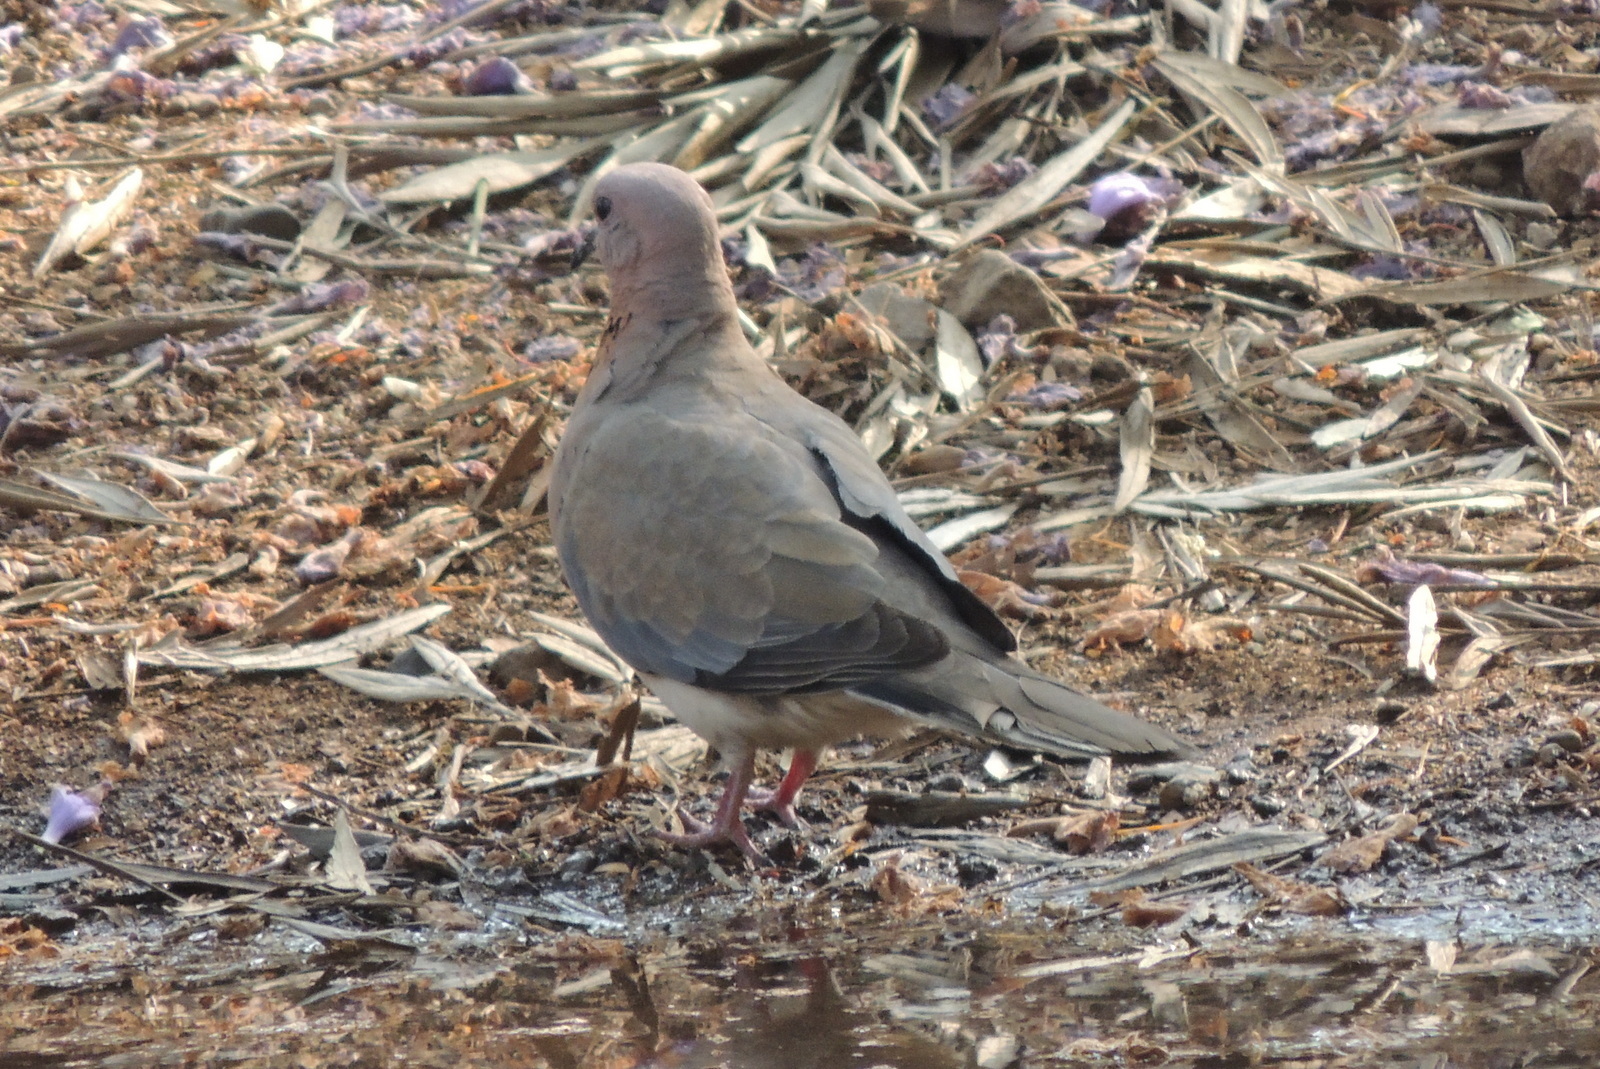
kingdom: Animalia
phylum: Chordata
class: Aves
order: Columbiformes
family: Columbidae
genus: Spilopelia
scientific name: Spilopelia senegalensis
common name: Laughing dove
